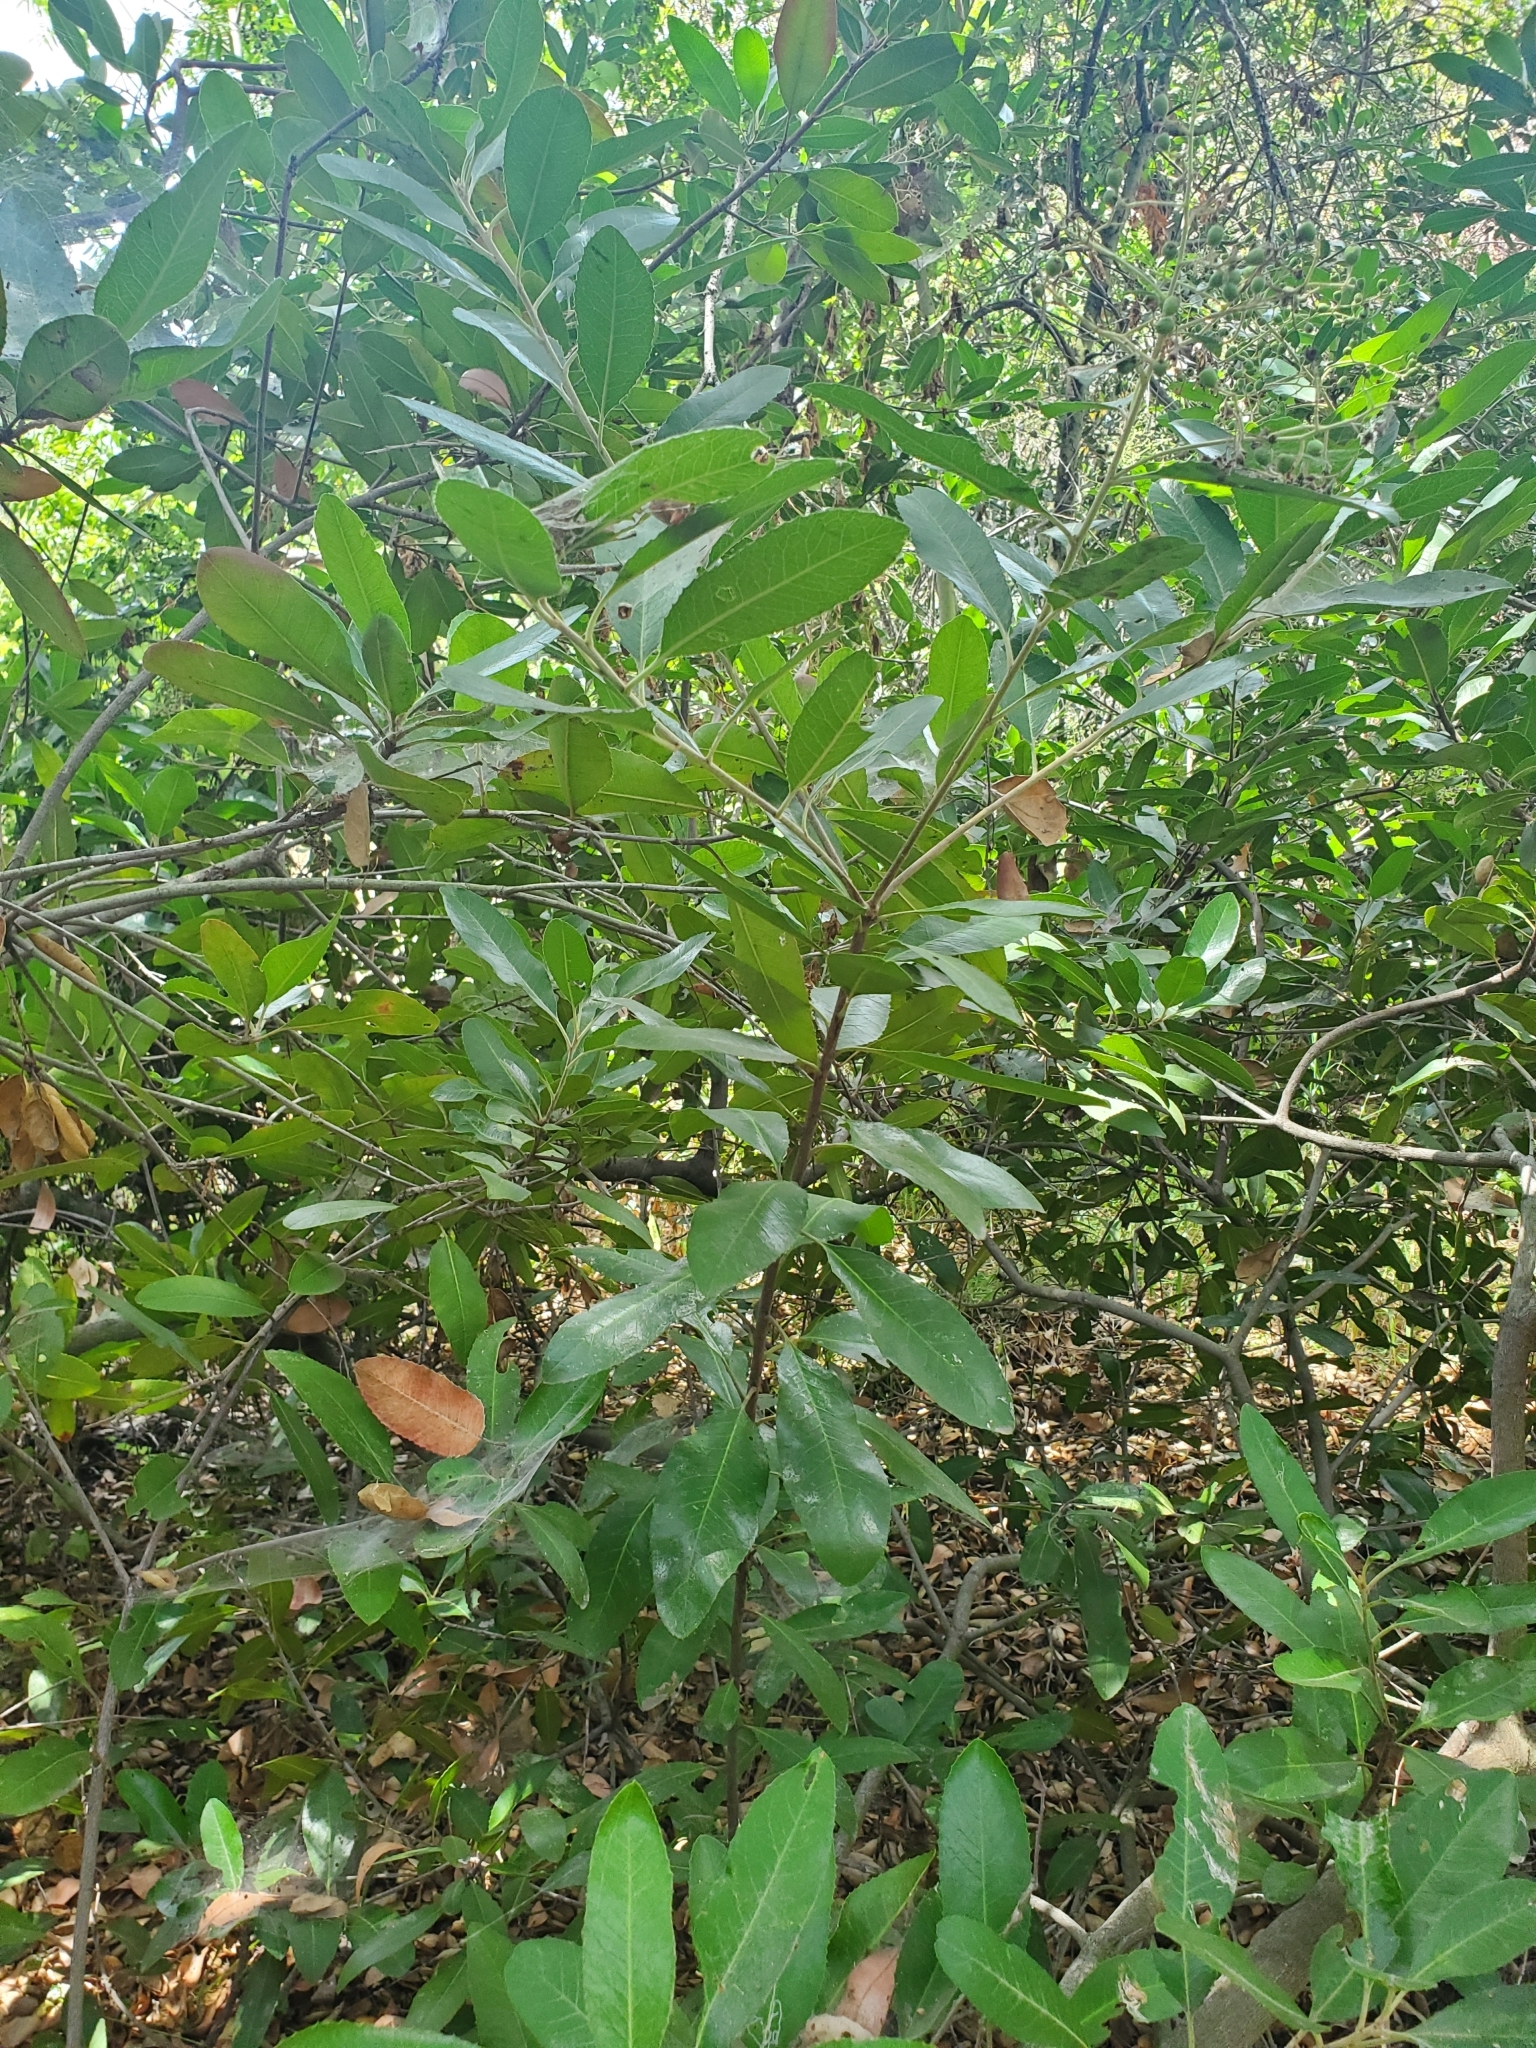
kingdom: Plantae
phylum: Tracheophyta
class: Magnoliopsida
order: Rosales
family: Rosaceae
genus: Heteromeles
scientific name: Heteromeles arbutifolia
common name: California-holly
